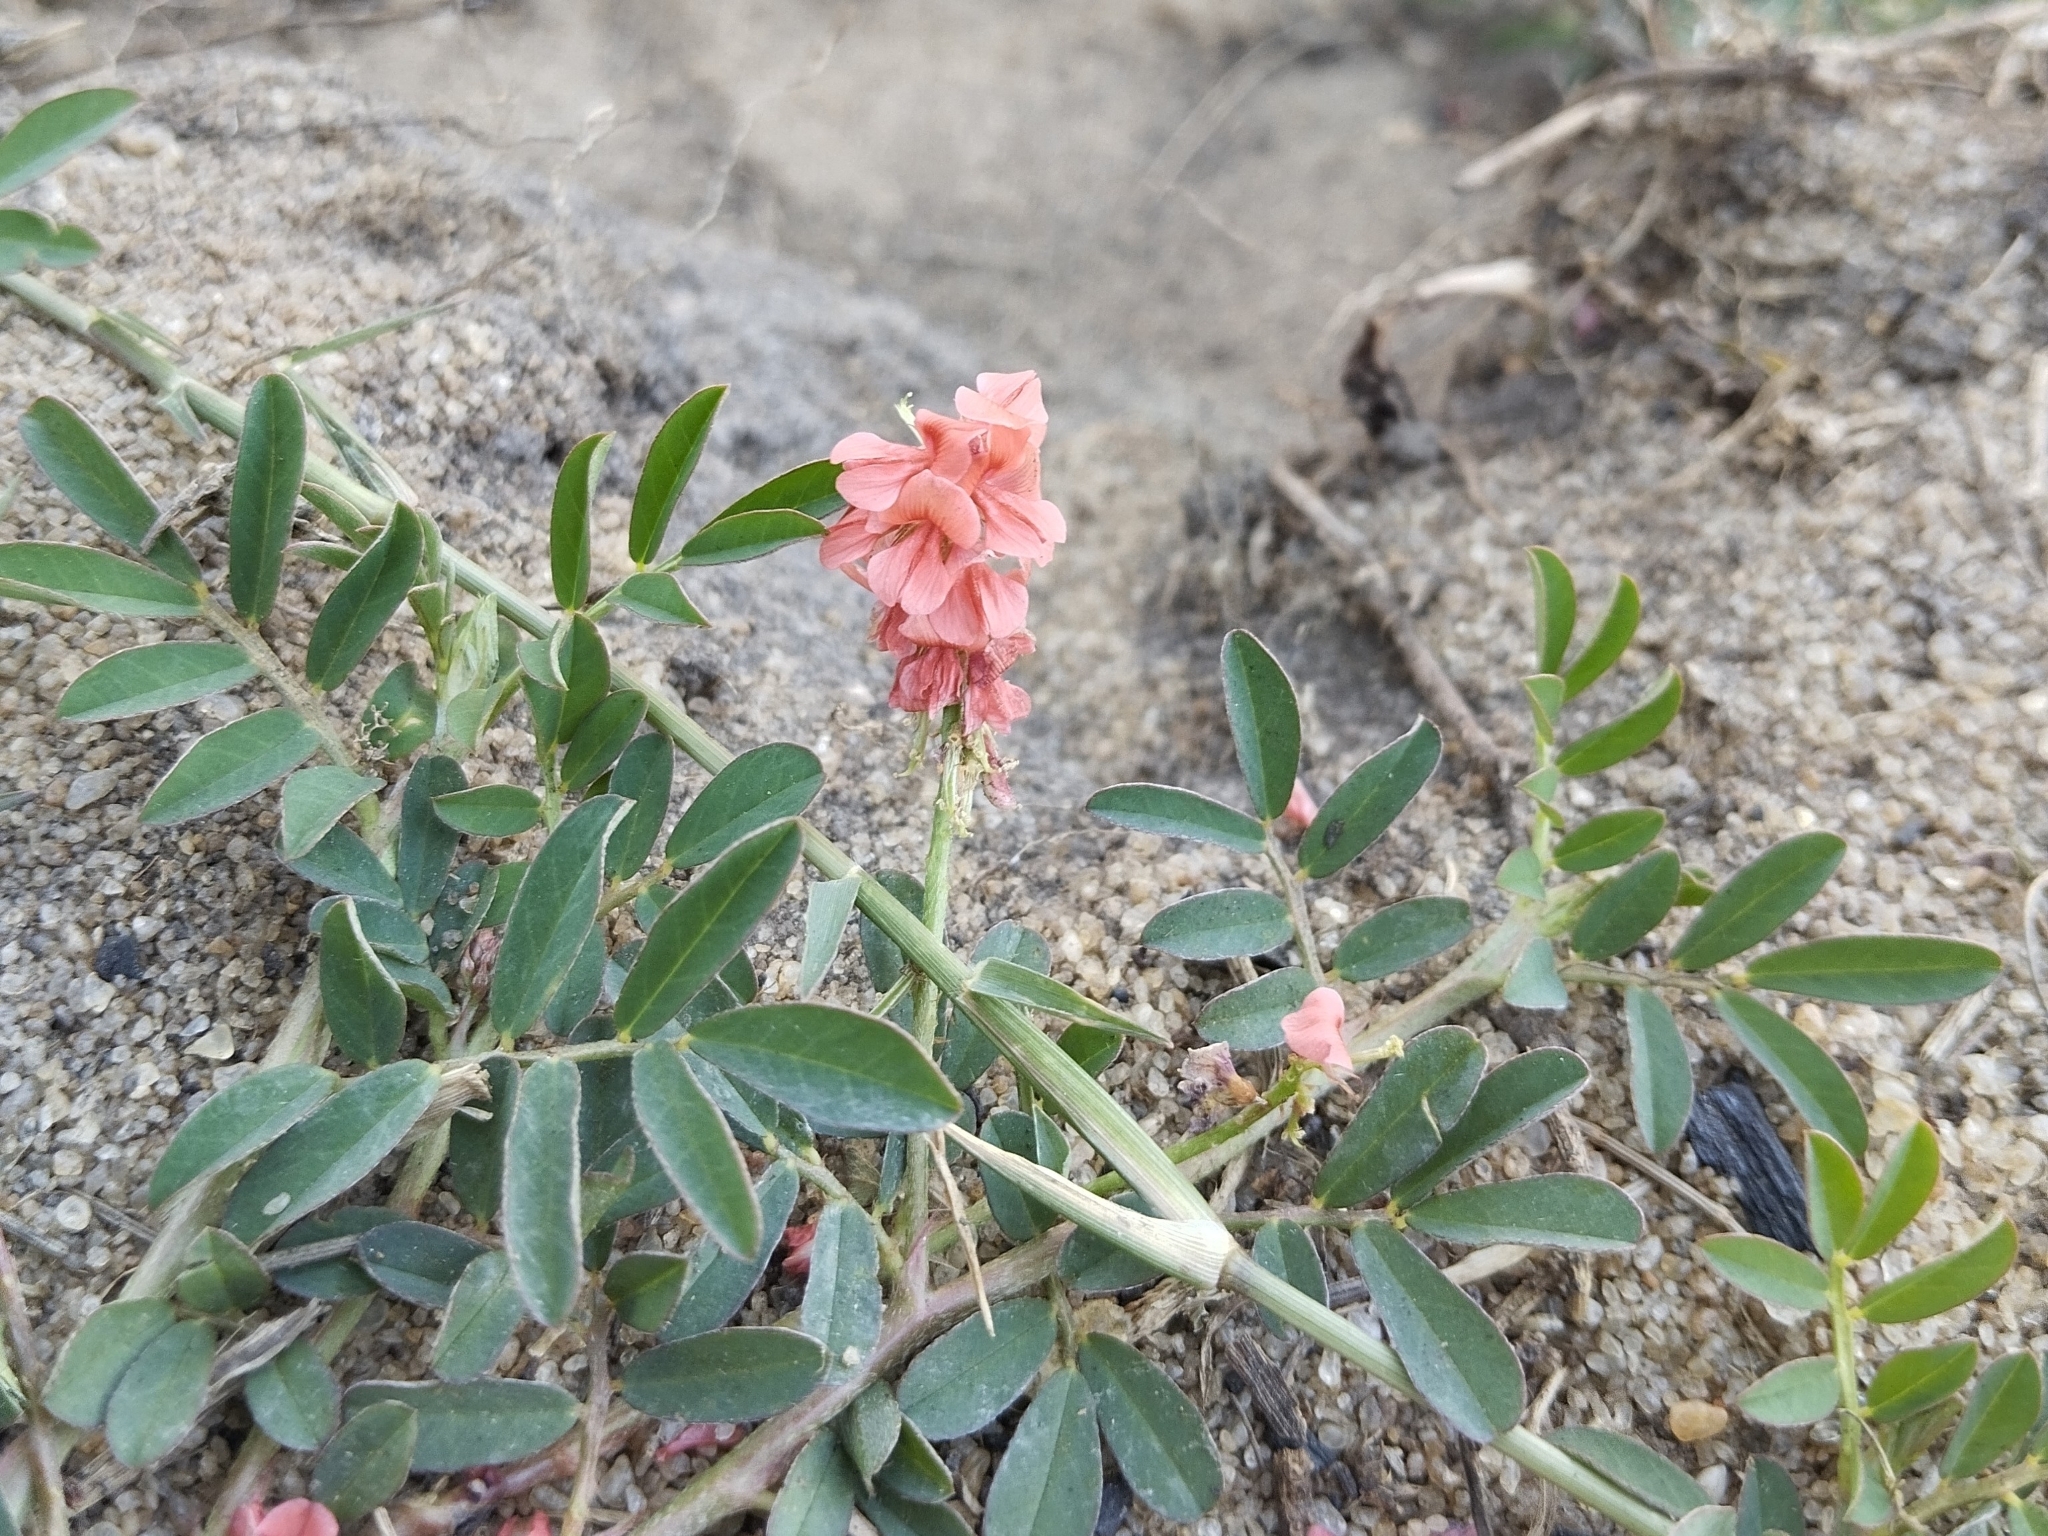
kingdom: Plantae
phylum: Tracheophyta
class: Magnoliopsida
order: Fabales
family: Fabaceae
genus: Indigofera
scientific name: Indigofera hendecaphylla
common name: Trailing indigo
